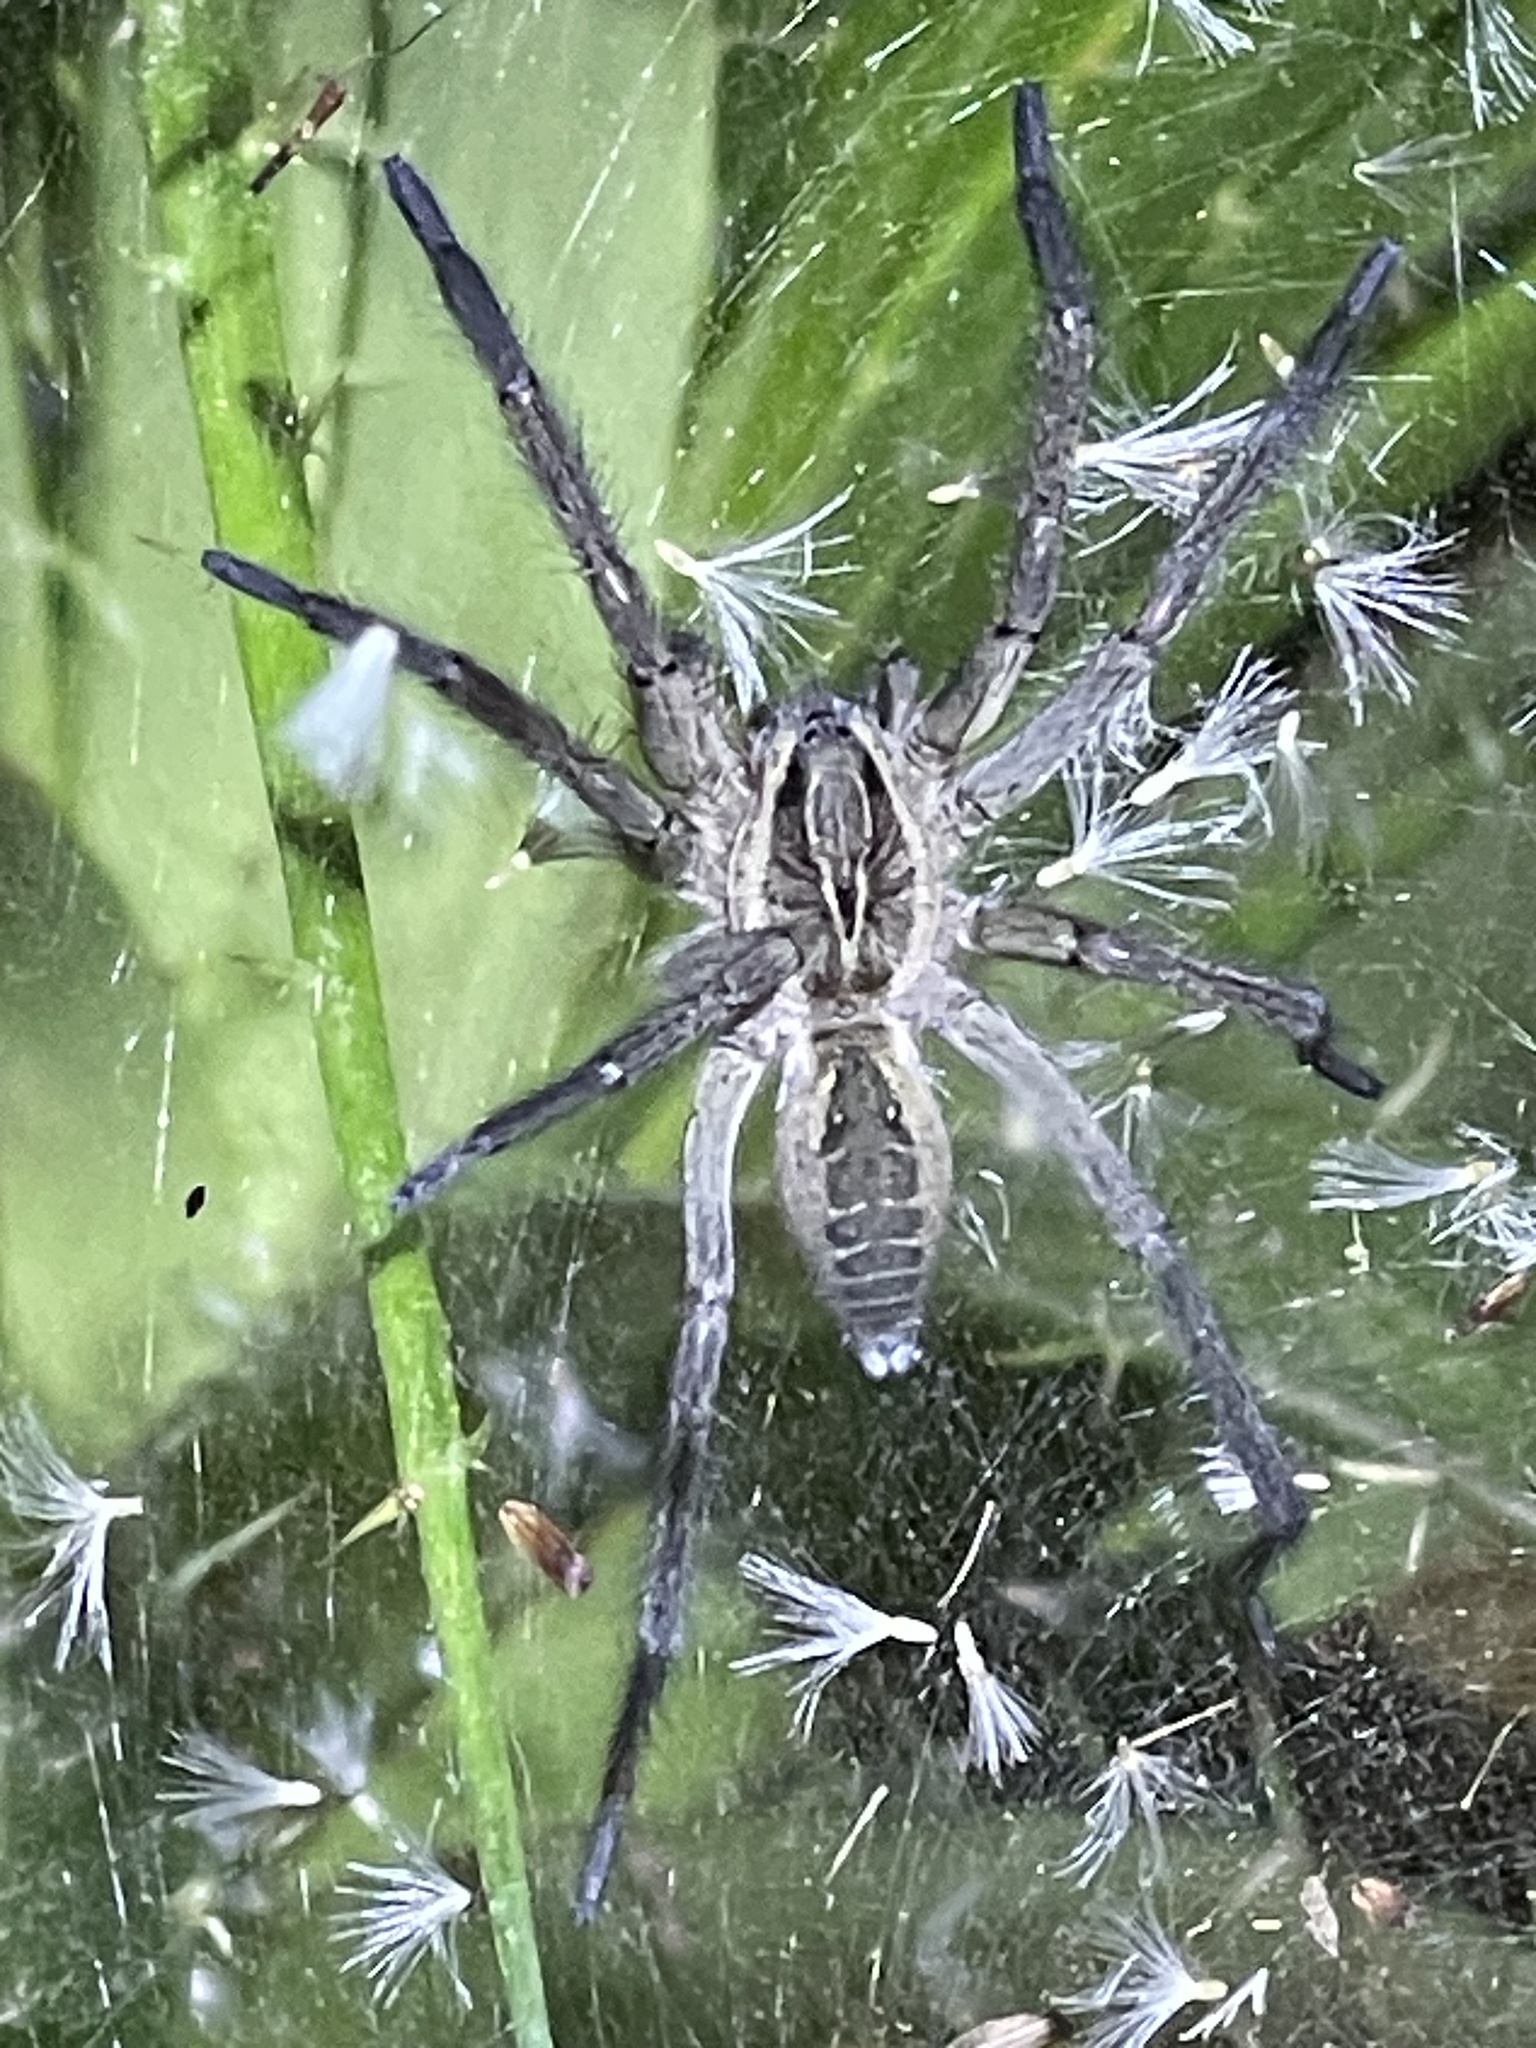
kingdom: Animalia
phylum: Arthropoda
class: Arachnida
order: Araneae
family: Lycosidae
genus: Aglaoctenus
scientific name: Aglaoctenus lagotis
